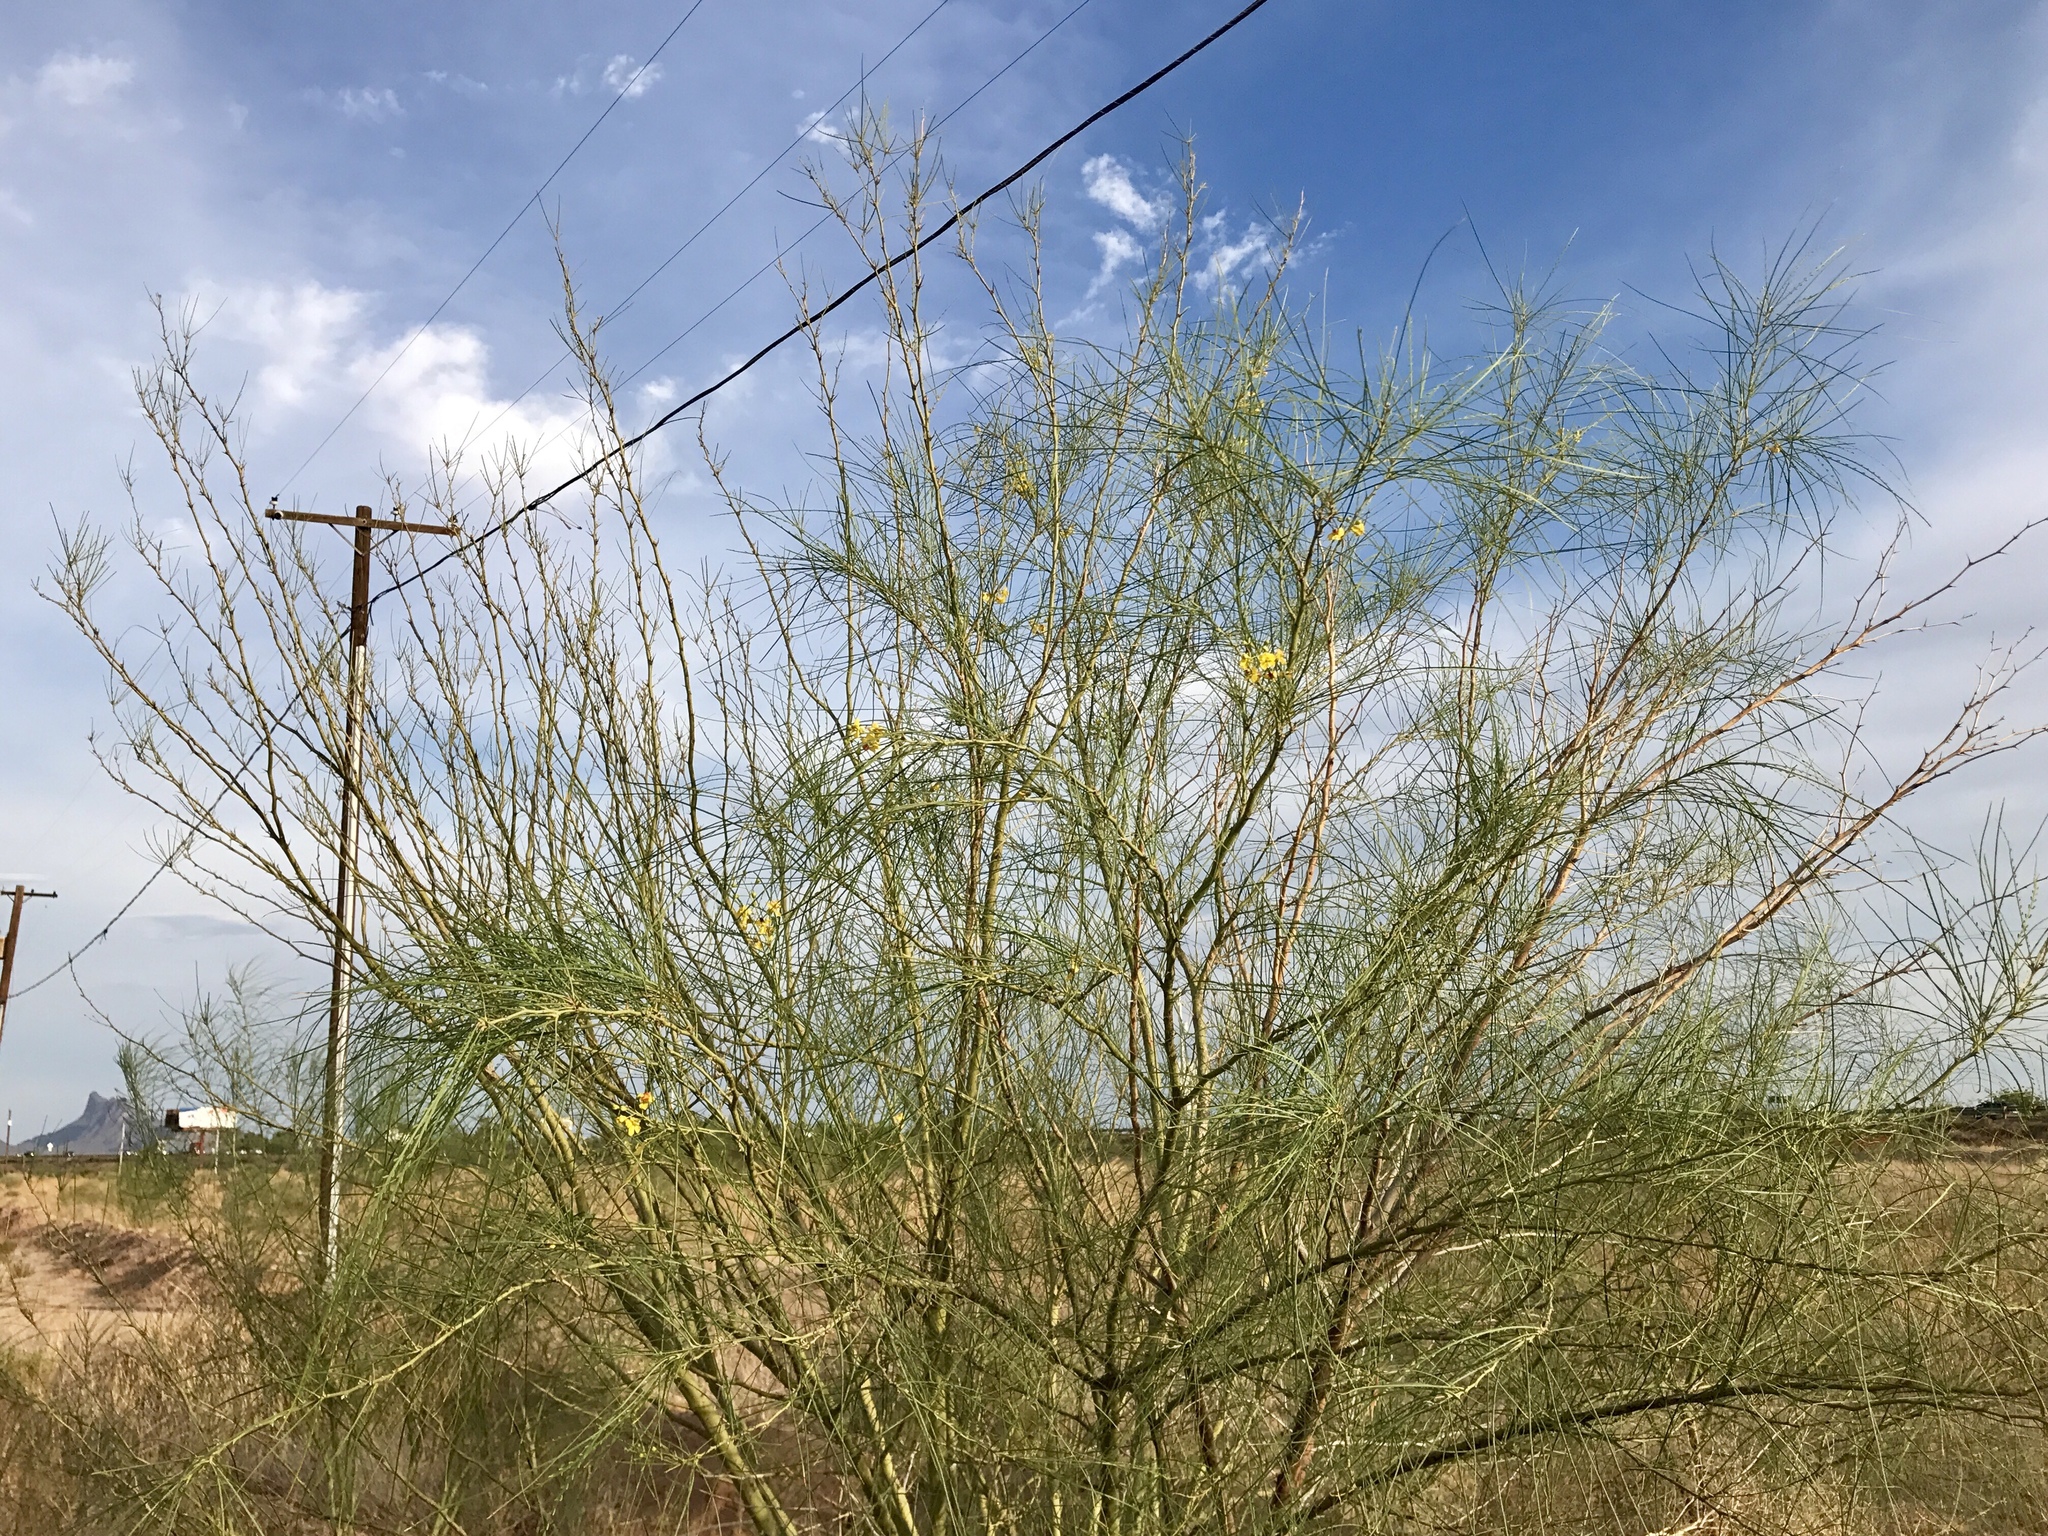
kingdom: Plantae
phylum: Tracheophyta
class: Magnoliopsida
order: Fabales
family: Fabaceae
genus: Parkinsonia
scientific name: Parkinsonia aculeata
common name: Jerusalem thorn
